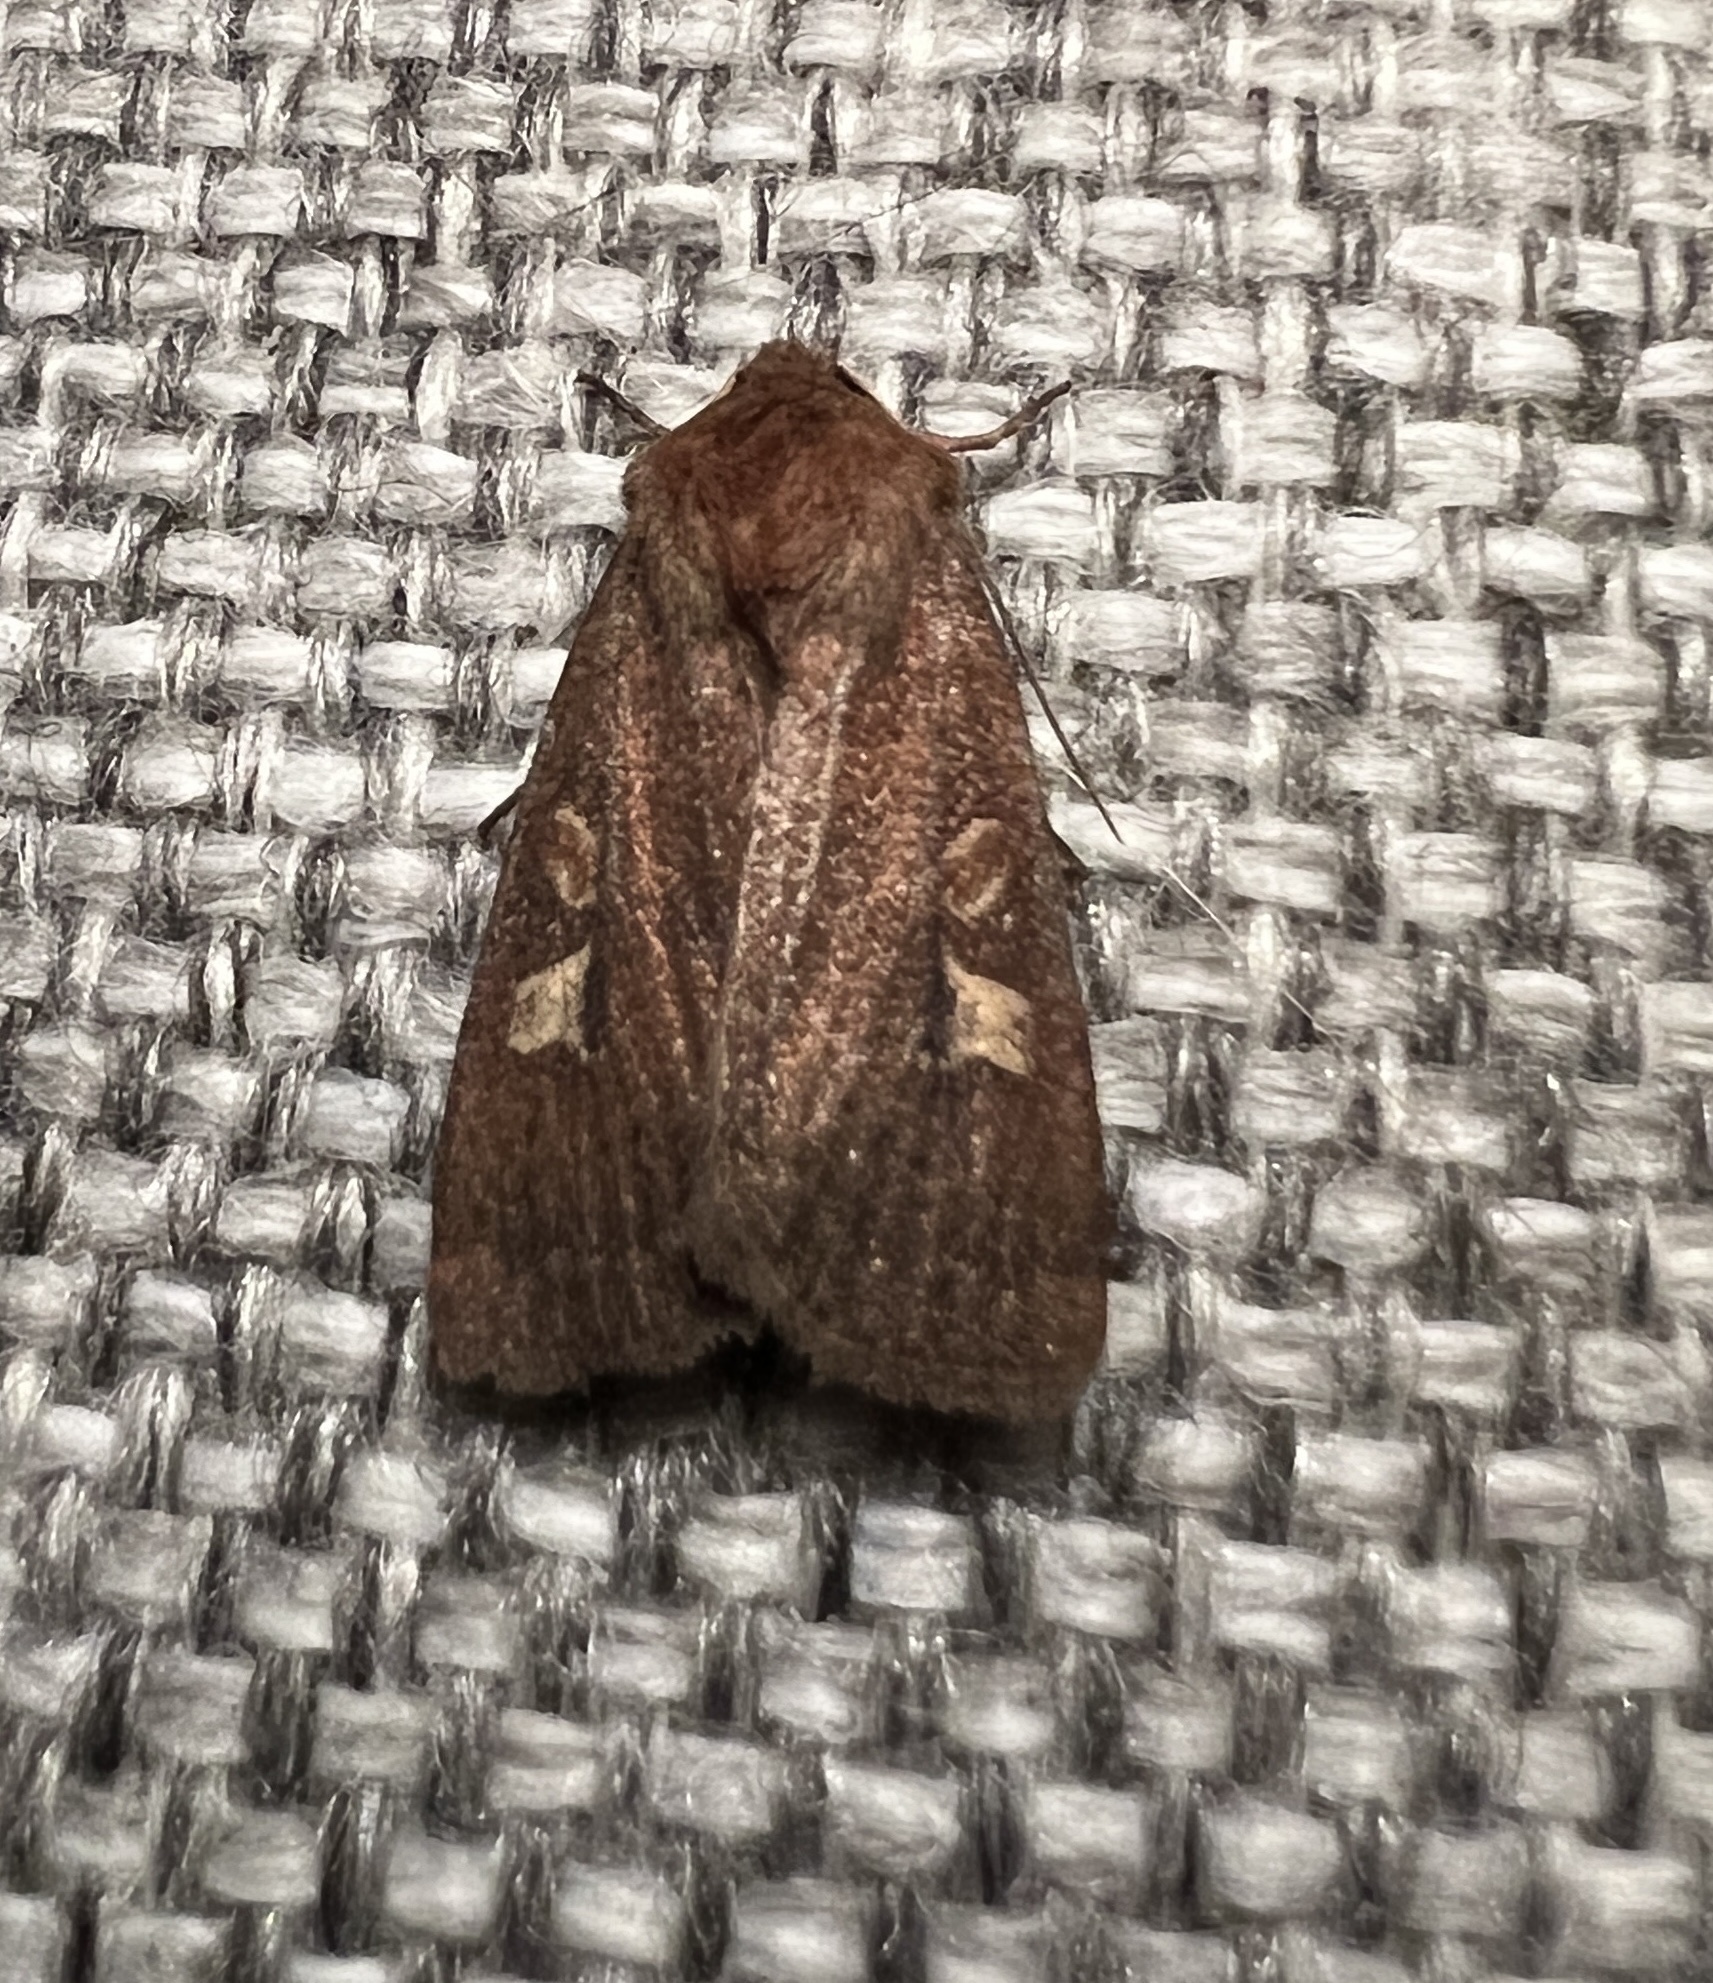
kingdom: Animalia
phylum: Arthropoda
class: Insecta
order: Lepidoptera
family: Noctuidae
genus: Xestia
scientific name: Xestia xanthographa
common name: Square-spot rustic
